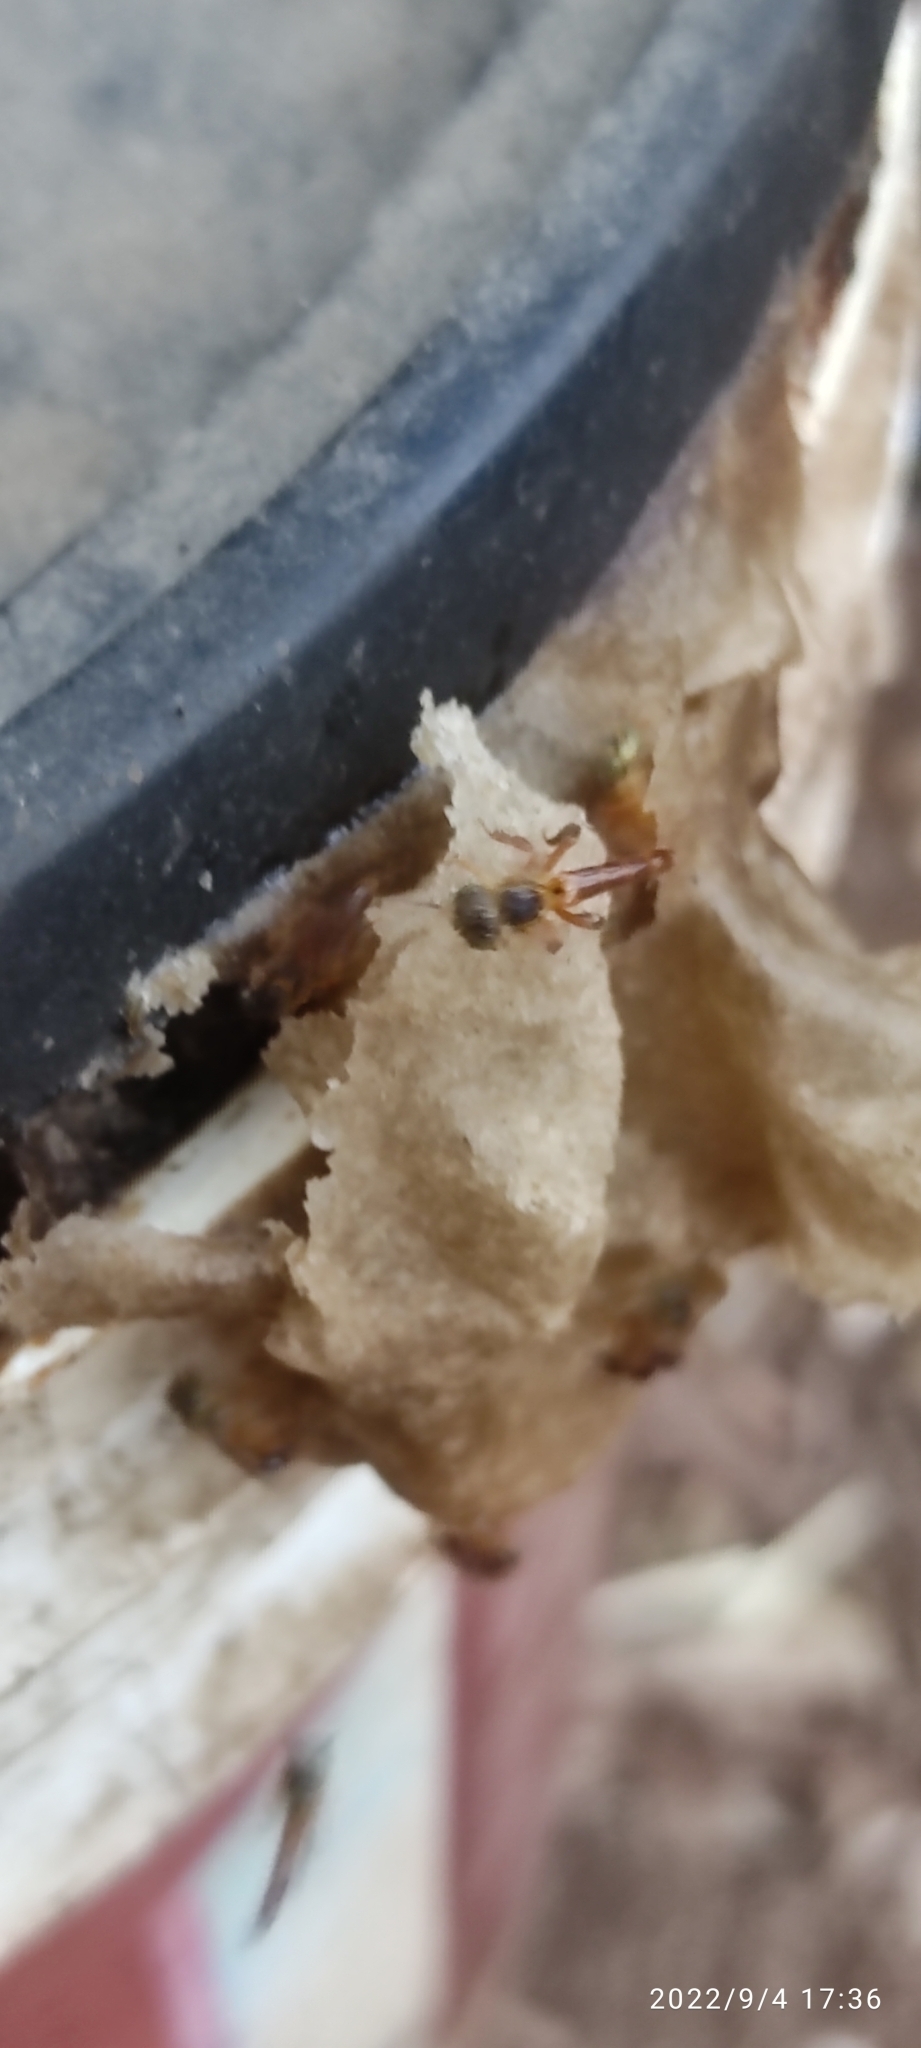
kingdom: Animalia
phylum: Arthropoda
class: Insecta
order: Hymenoptera
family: Apidae
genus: Tetragonisca
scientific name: Tetragonisca angustula
